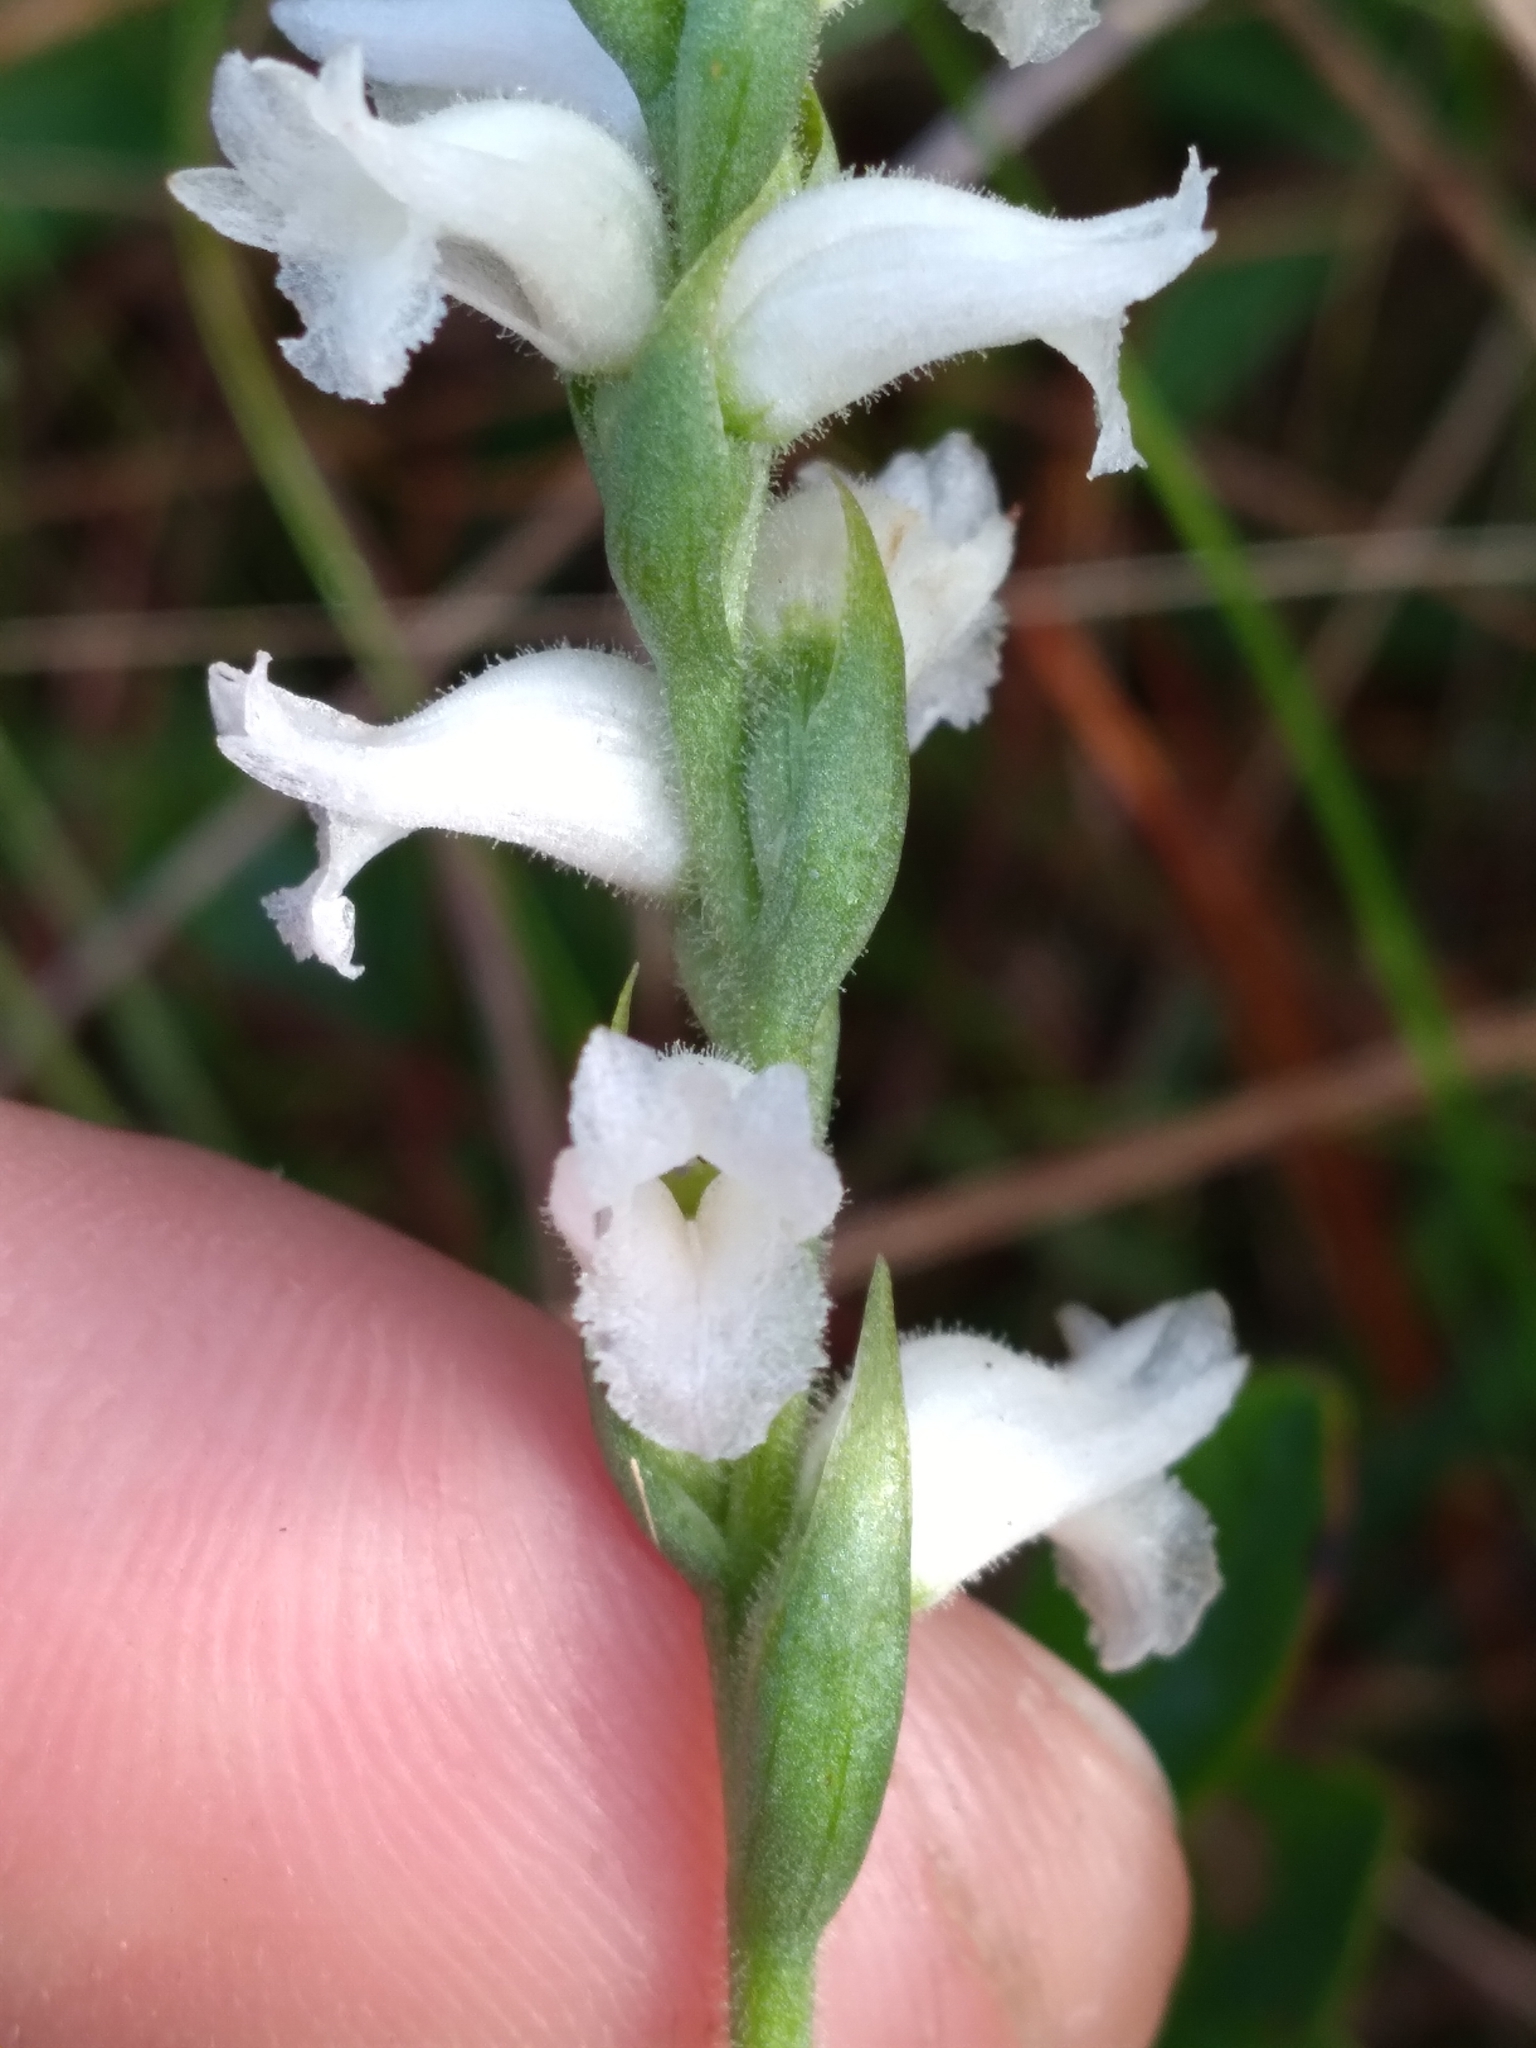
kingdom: Plantae
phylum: Tracheophyta
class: Liliopsida
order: Asparagales
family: Orchidaceae
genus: Spiranthes
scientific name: Spiranthes cernua
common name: Dropping ladies'-tresses
